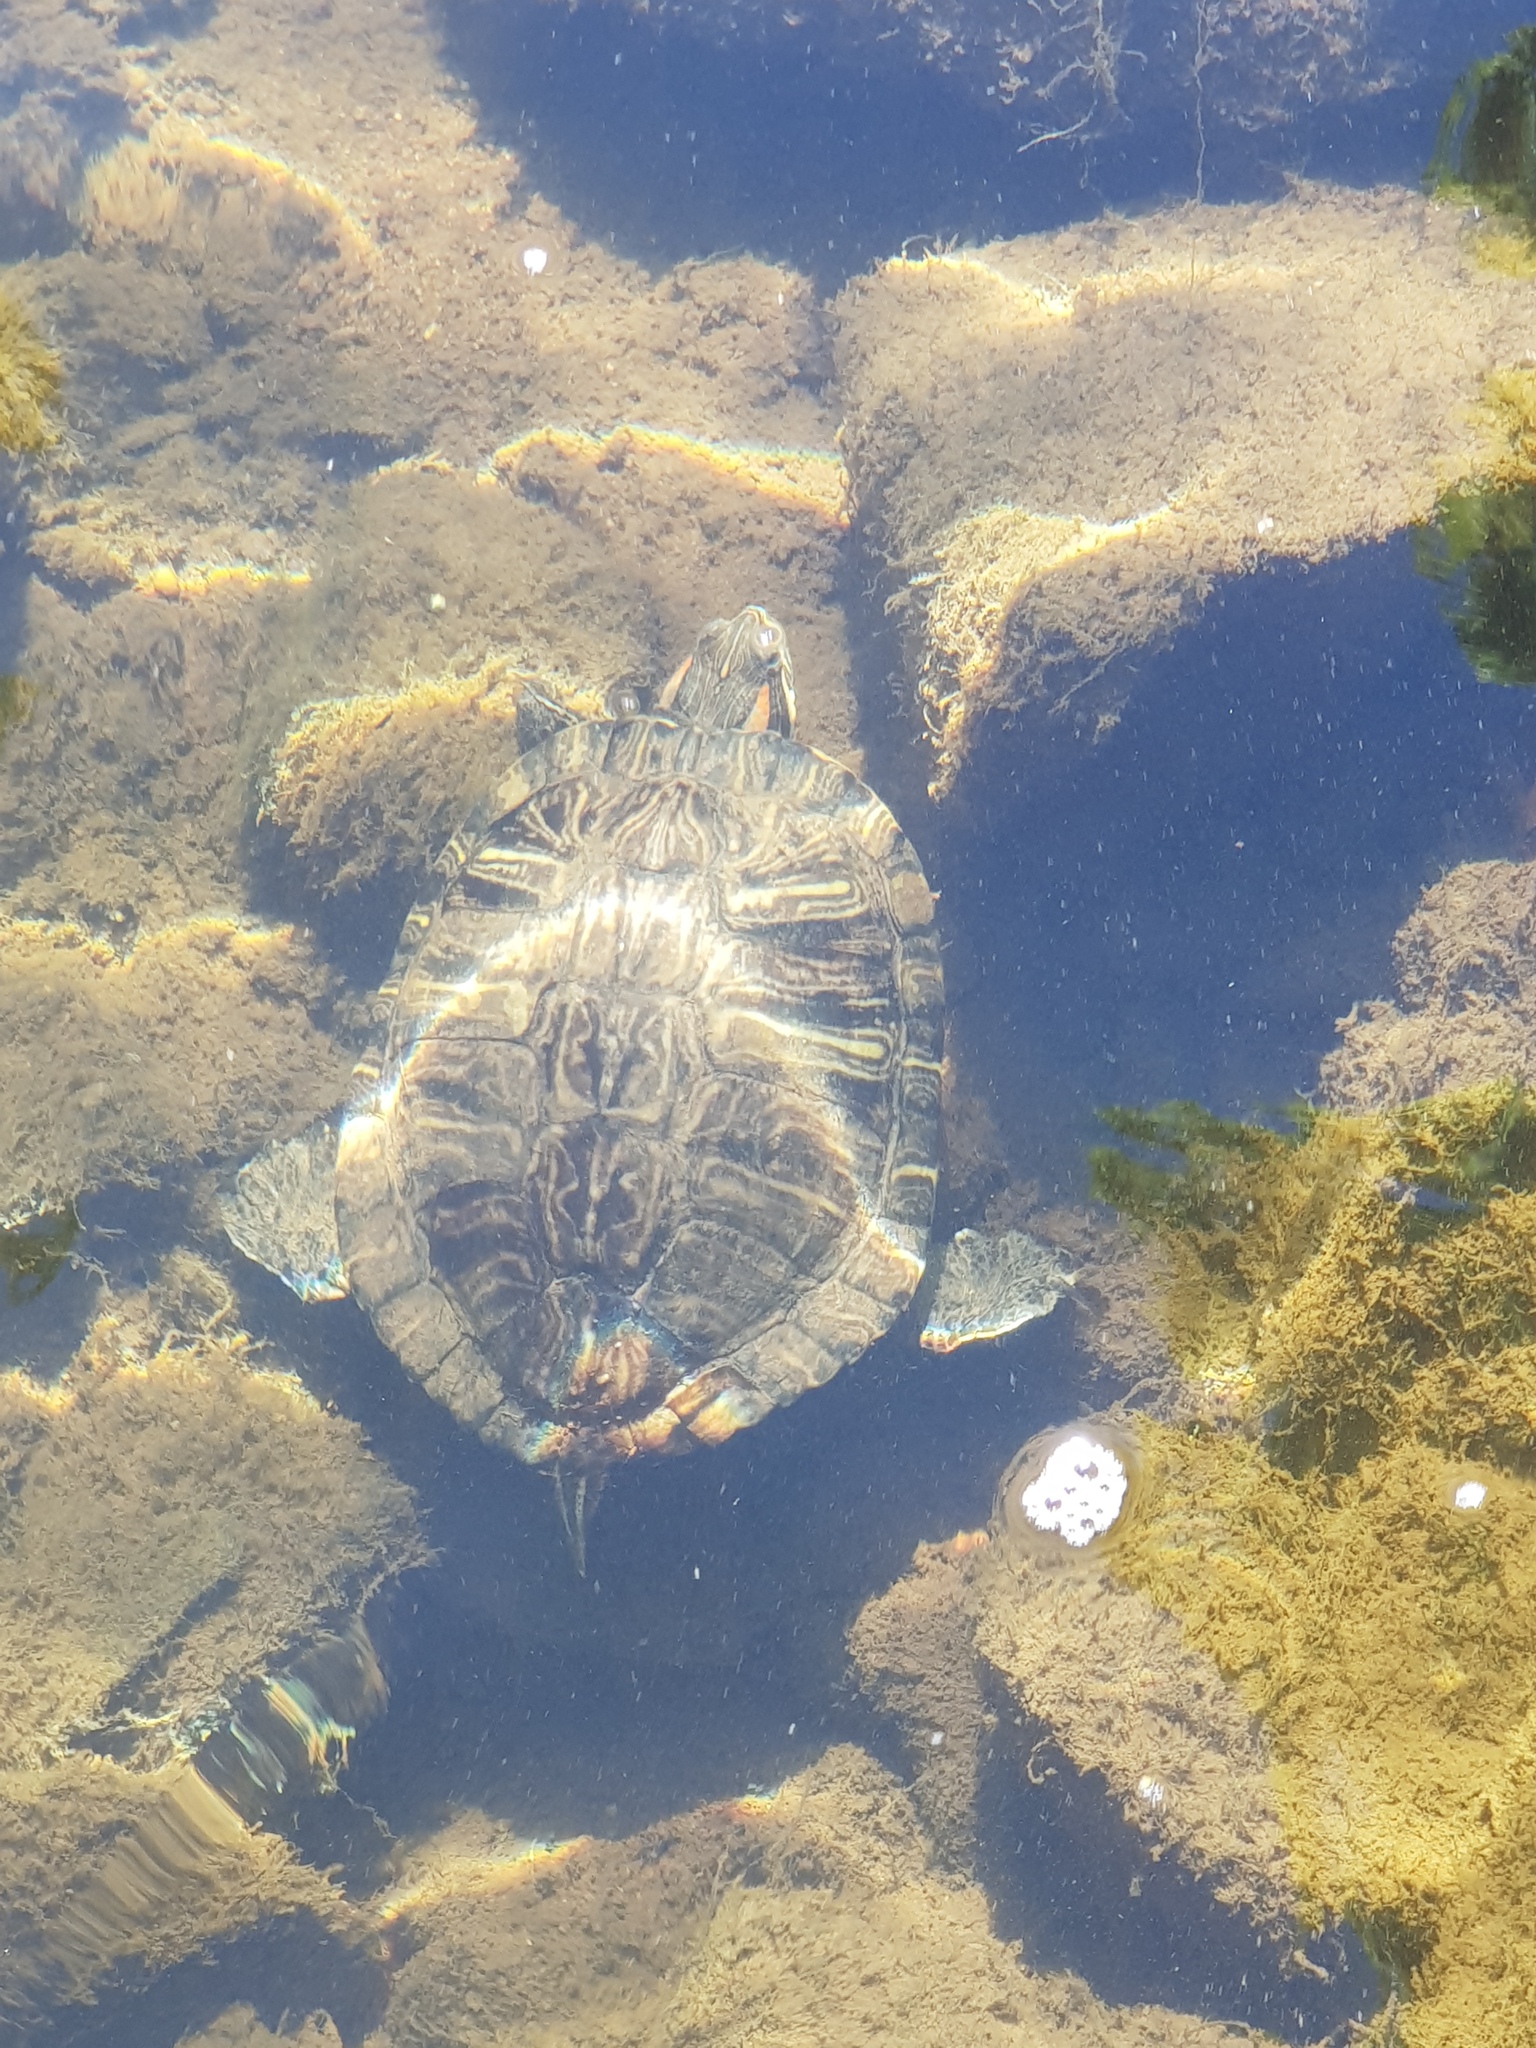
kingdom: Animalia
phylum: Chordata
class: Testudines
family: Emydidae
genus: Trachemys
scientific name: Trachemys scripta
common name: Slider
